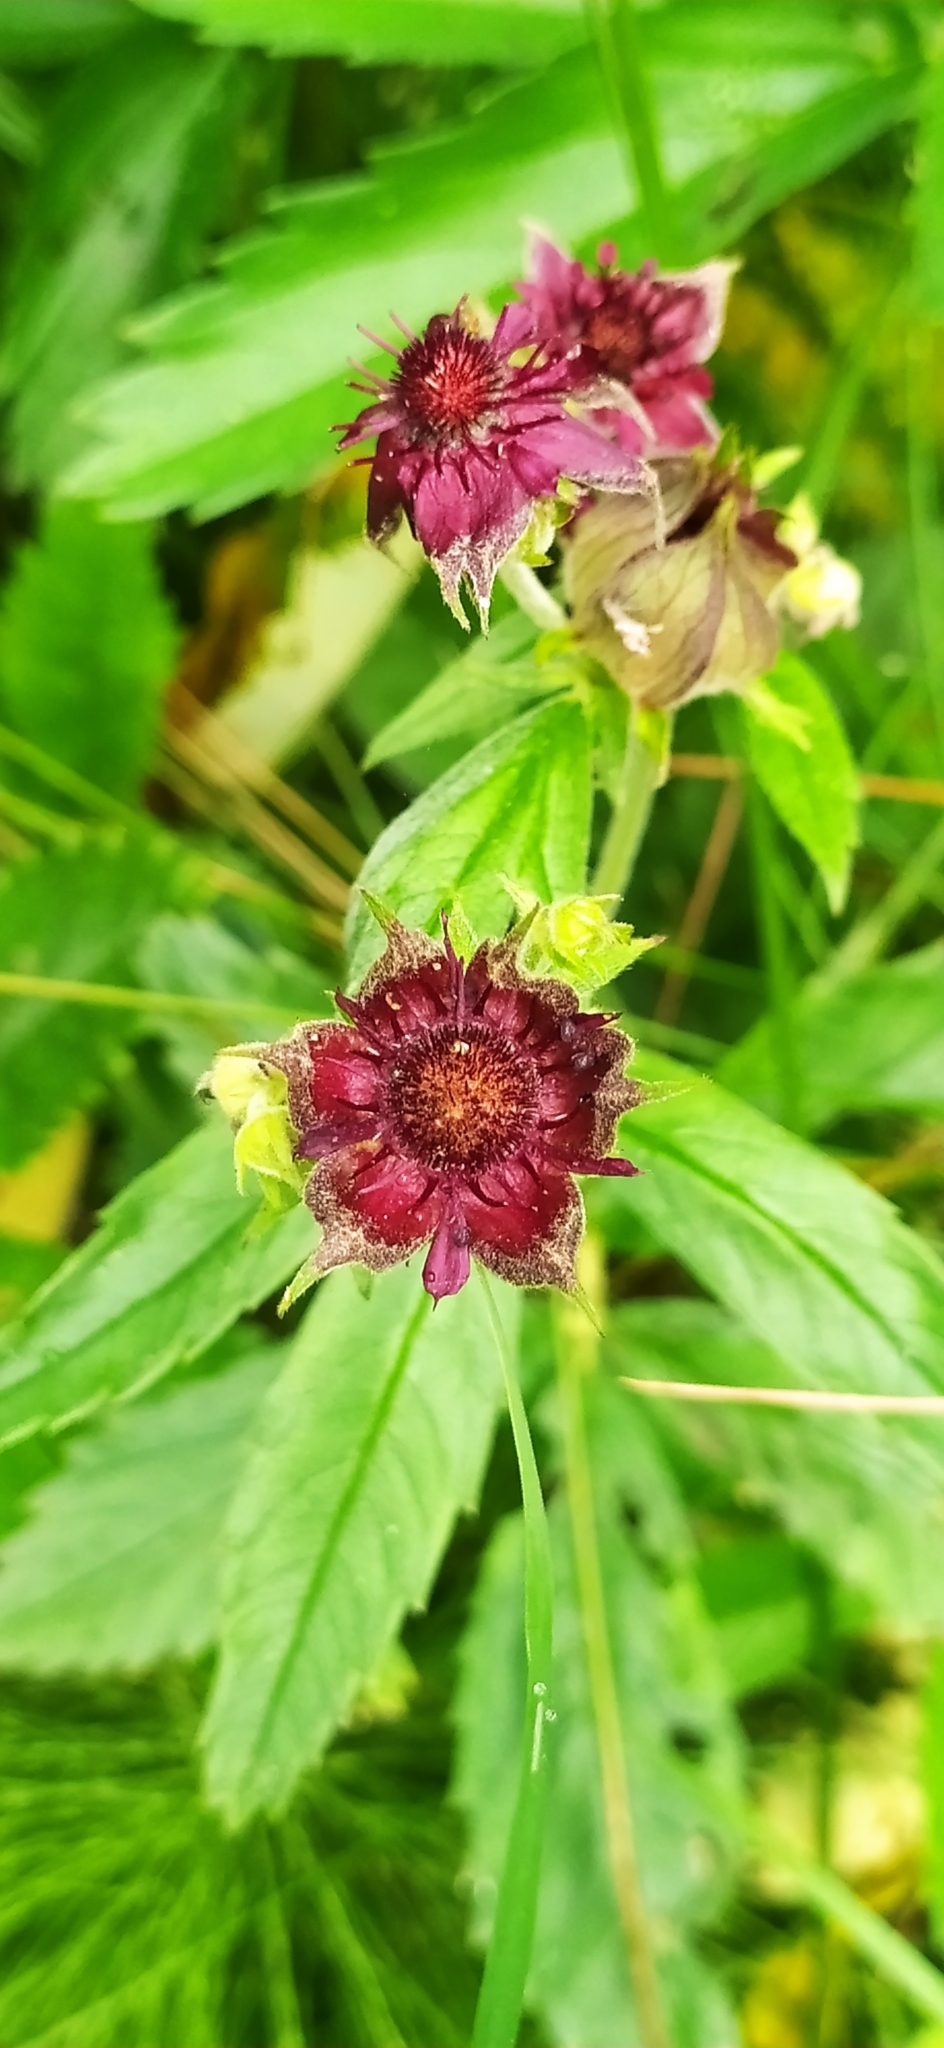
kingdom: Plantae
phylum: Tracheophyta
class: Magnoliopsida
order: Rosales
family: Rosaceae
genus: Comarum
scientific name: Comarum palustre
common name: Marsh cinquefoil
